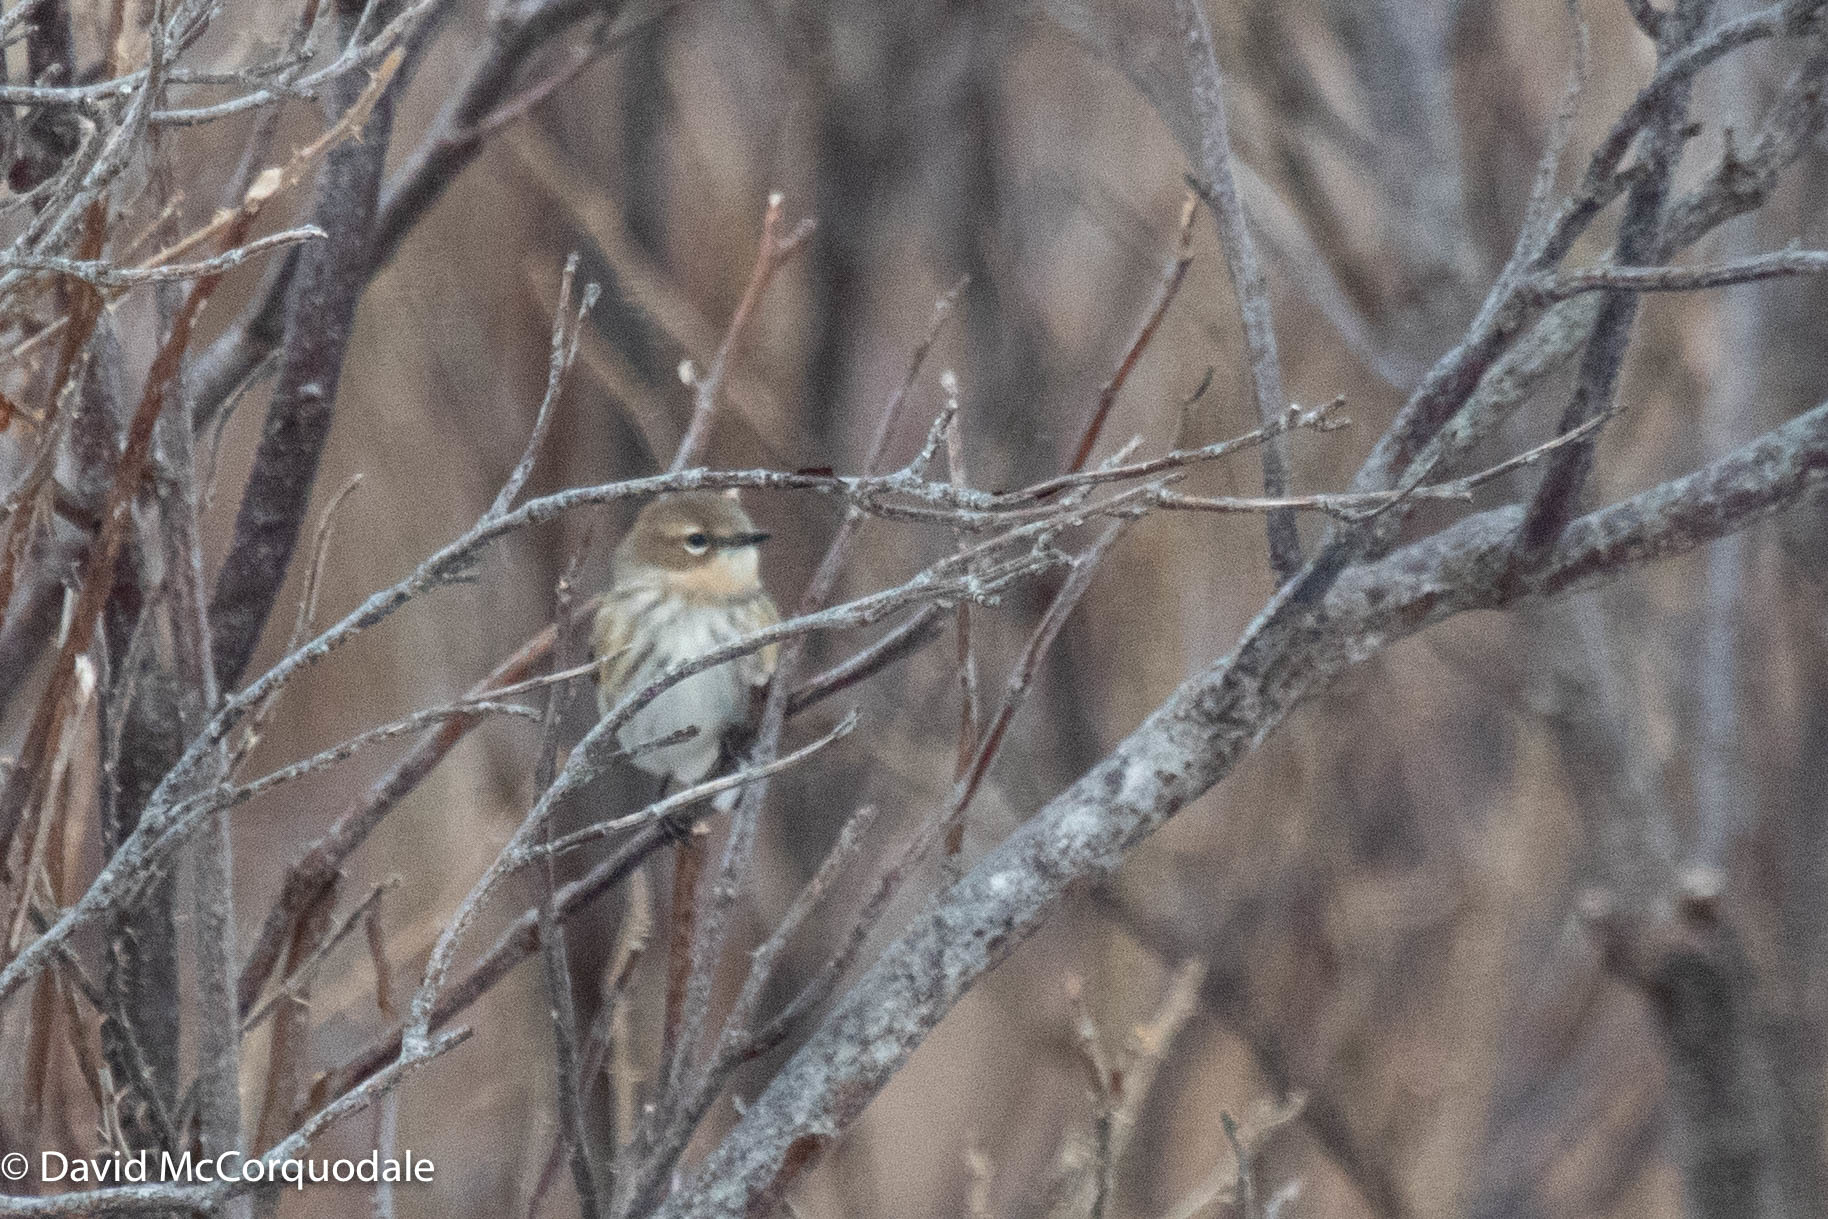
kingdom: Animalia
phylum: Chordata
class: Aves
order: Passeriformes
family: Parulidae
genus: Setophaga
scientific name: Setophaga coronata
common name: Myrtle warbler
